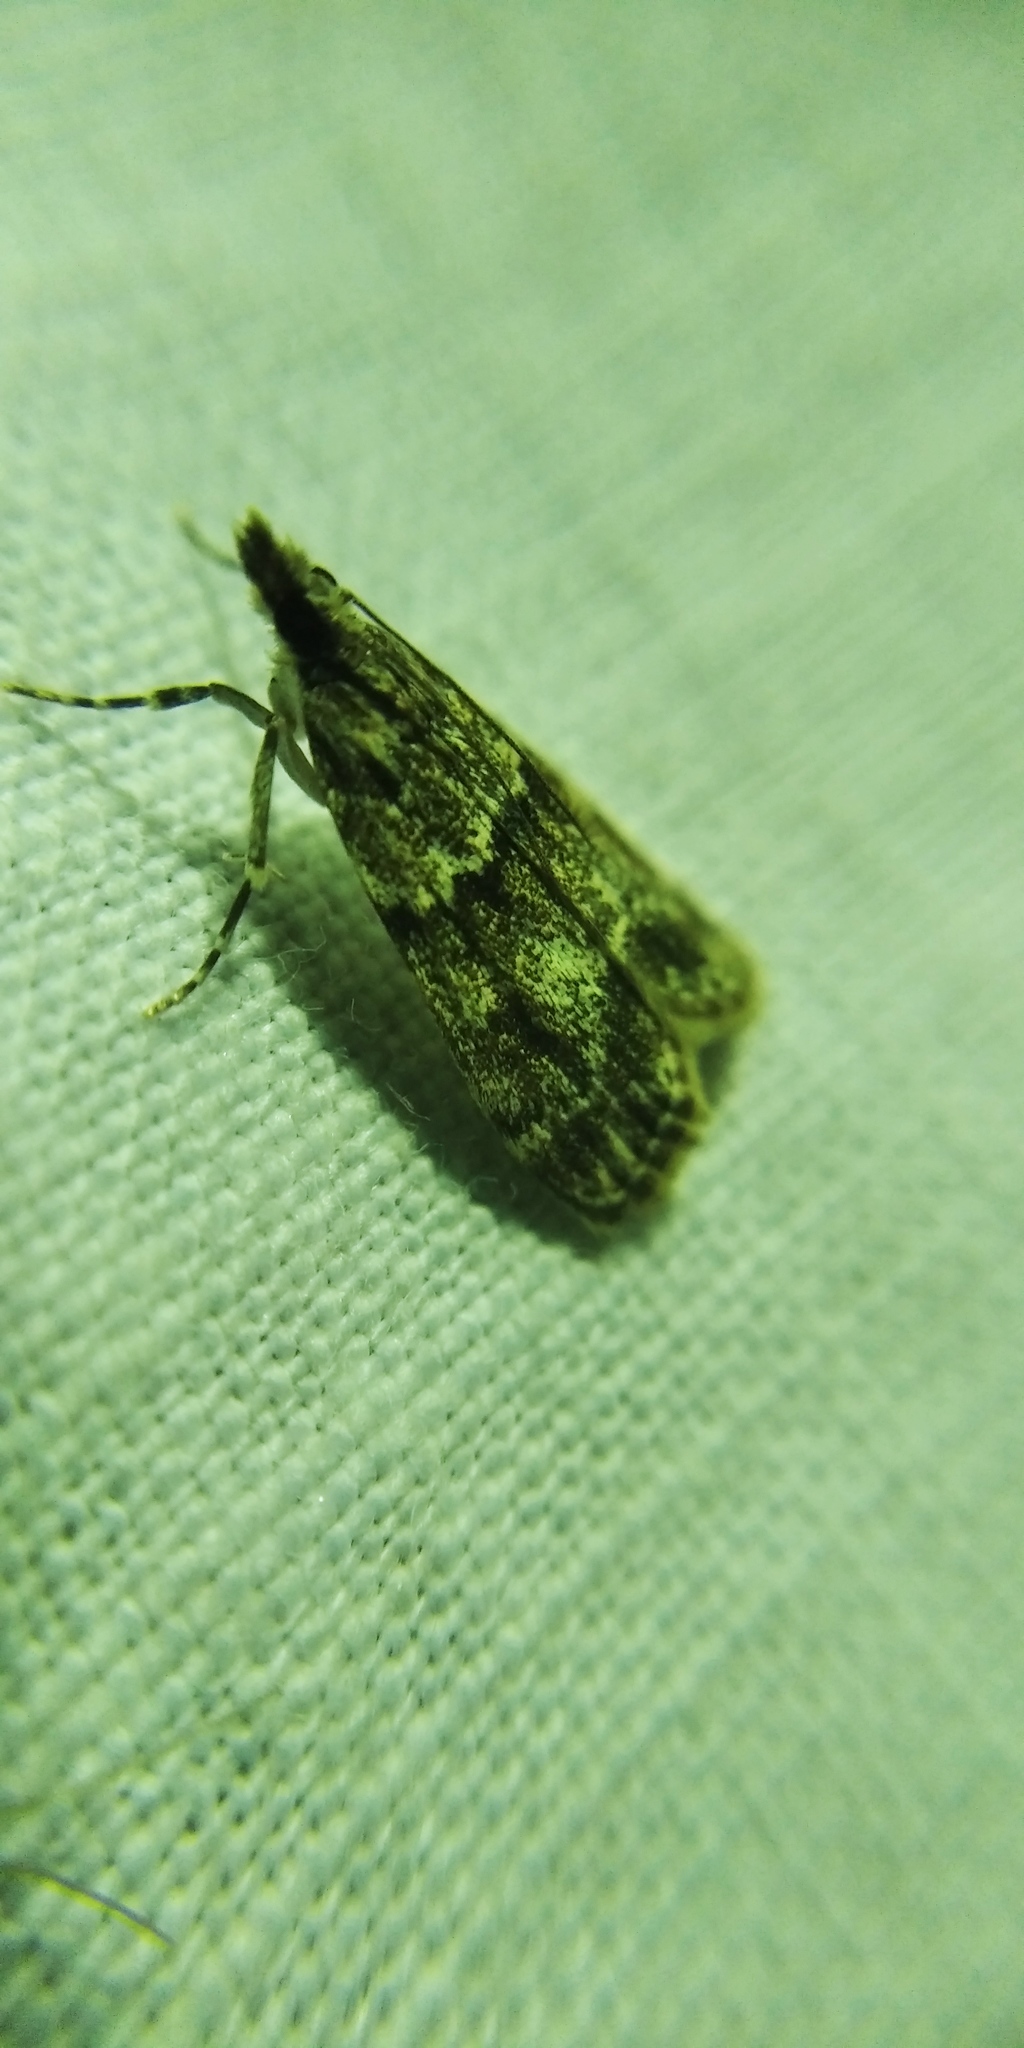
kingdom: Animalia
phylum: Arthropoda
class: Insecta
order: Lepidoptera
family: Crambidae
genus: Eudonia
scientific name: Eudonia mercurella
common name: Small grey
